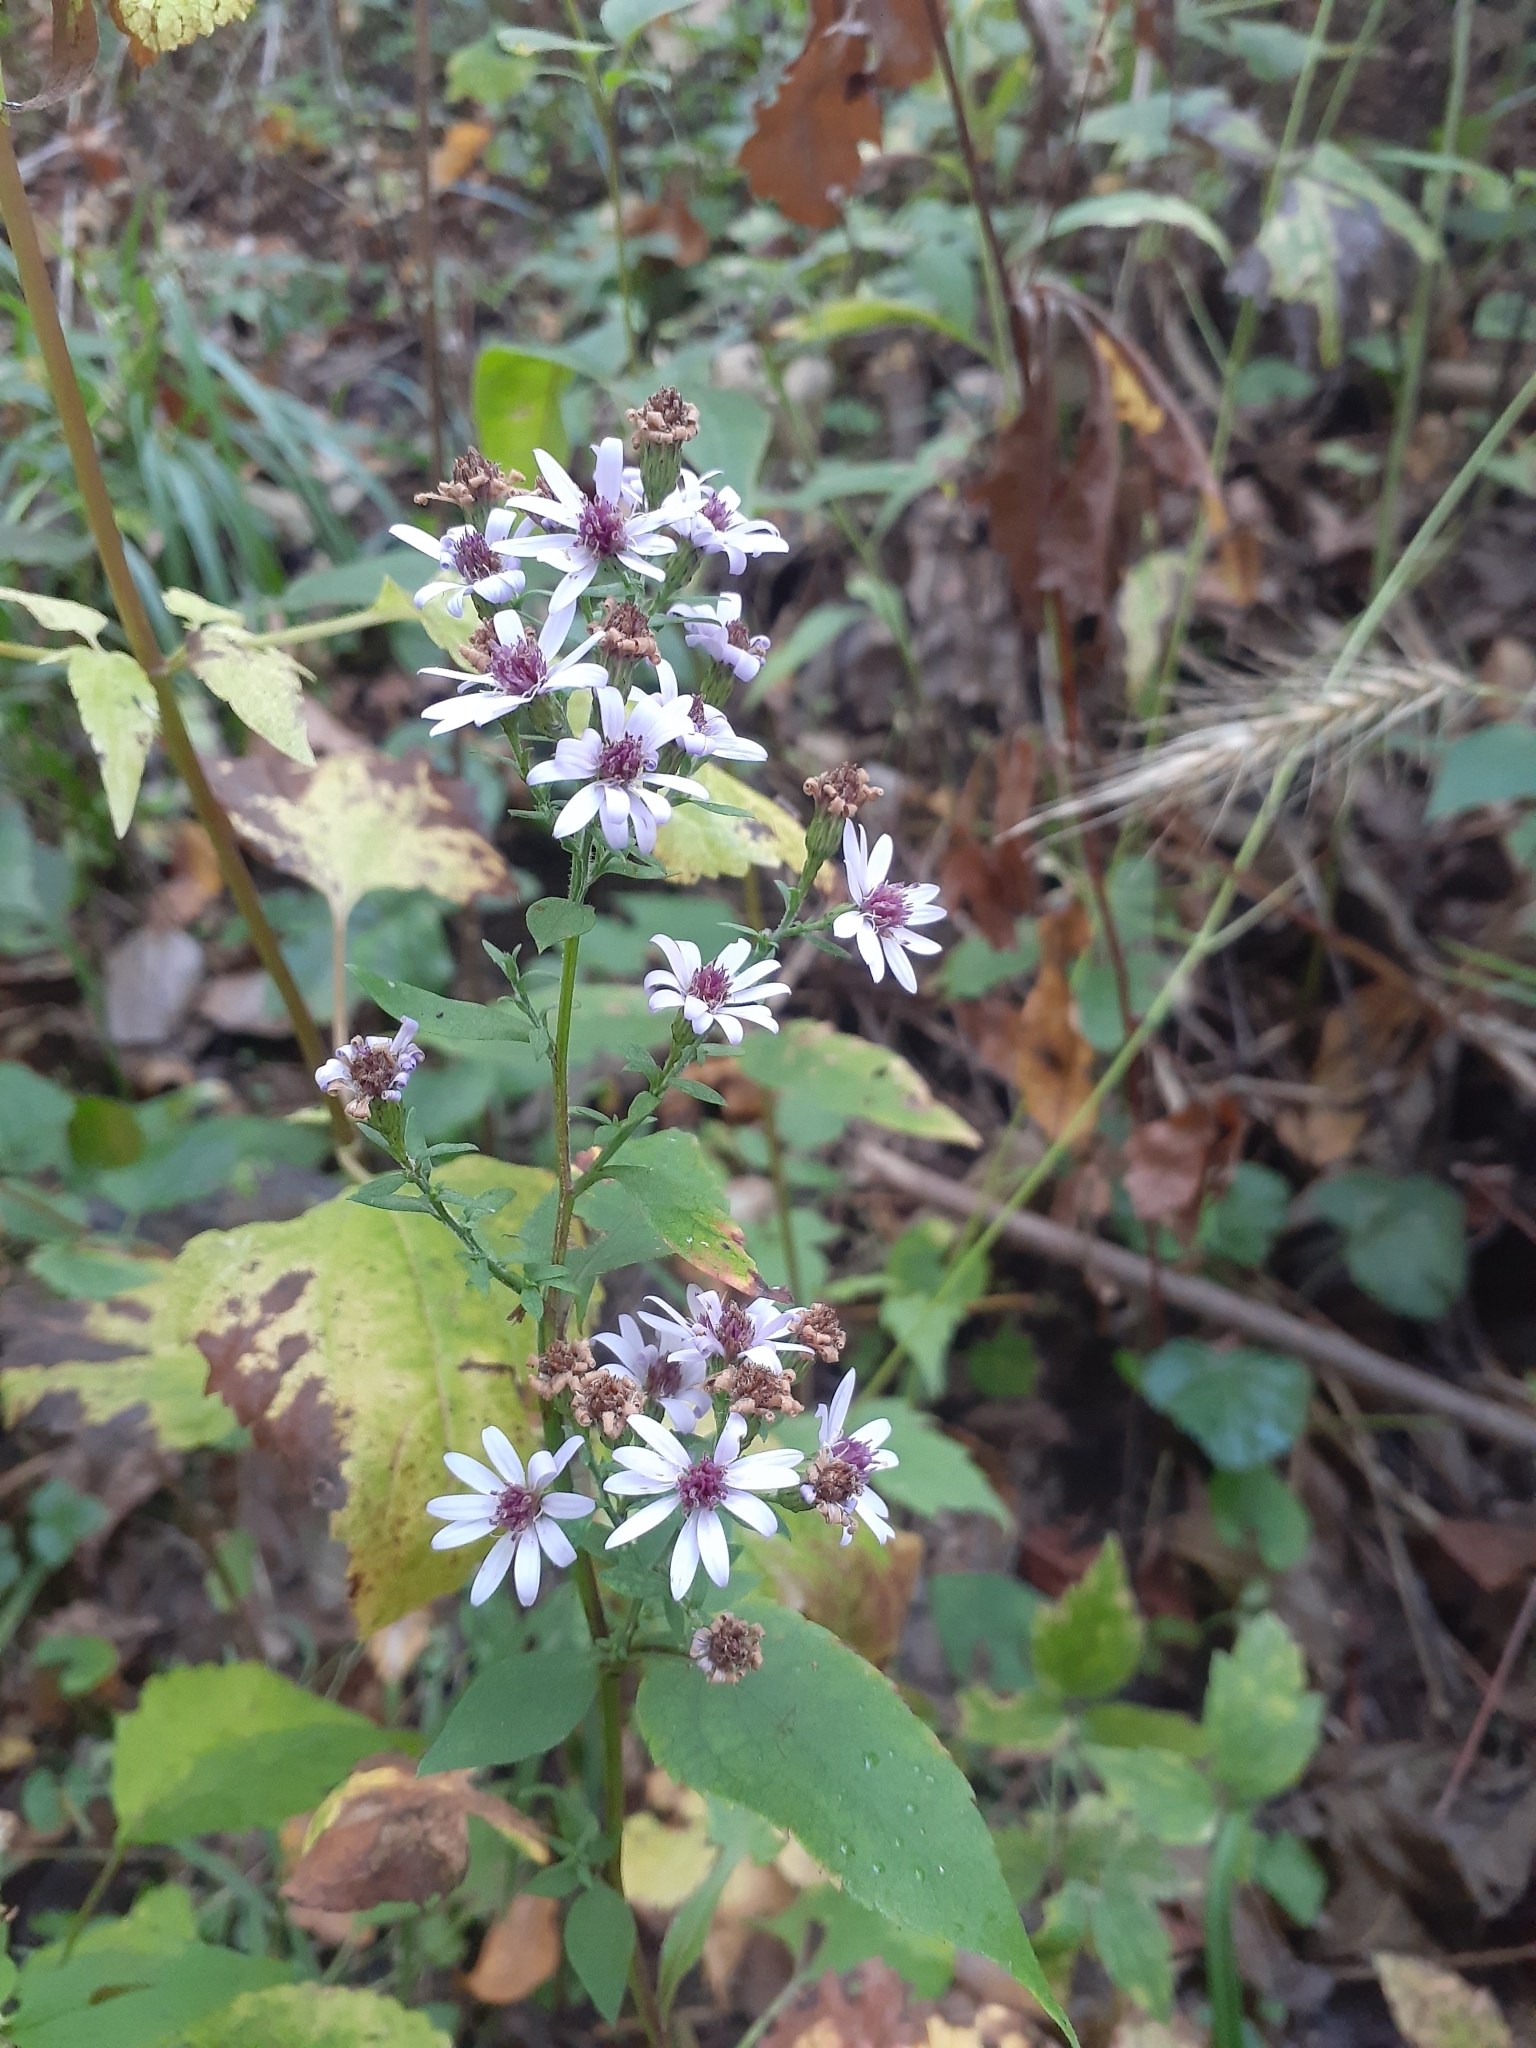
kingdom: Plantae
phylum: Tracheophyta
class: Magnoliopsida
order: Asterales
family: Asteraceae
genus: Symphyotrichum
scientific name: Symphyotrichum cordifolium
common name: Beeweed
